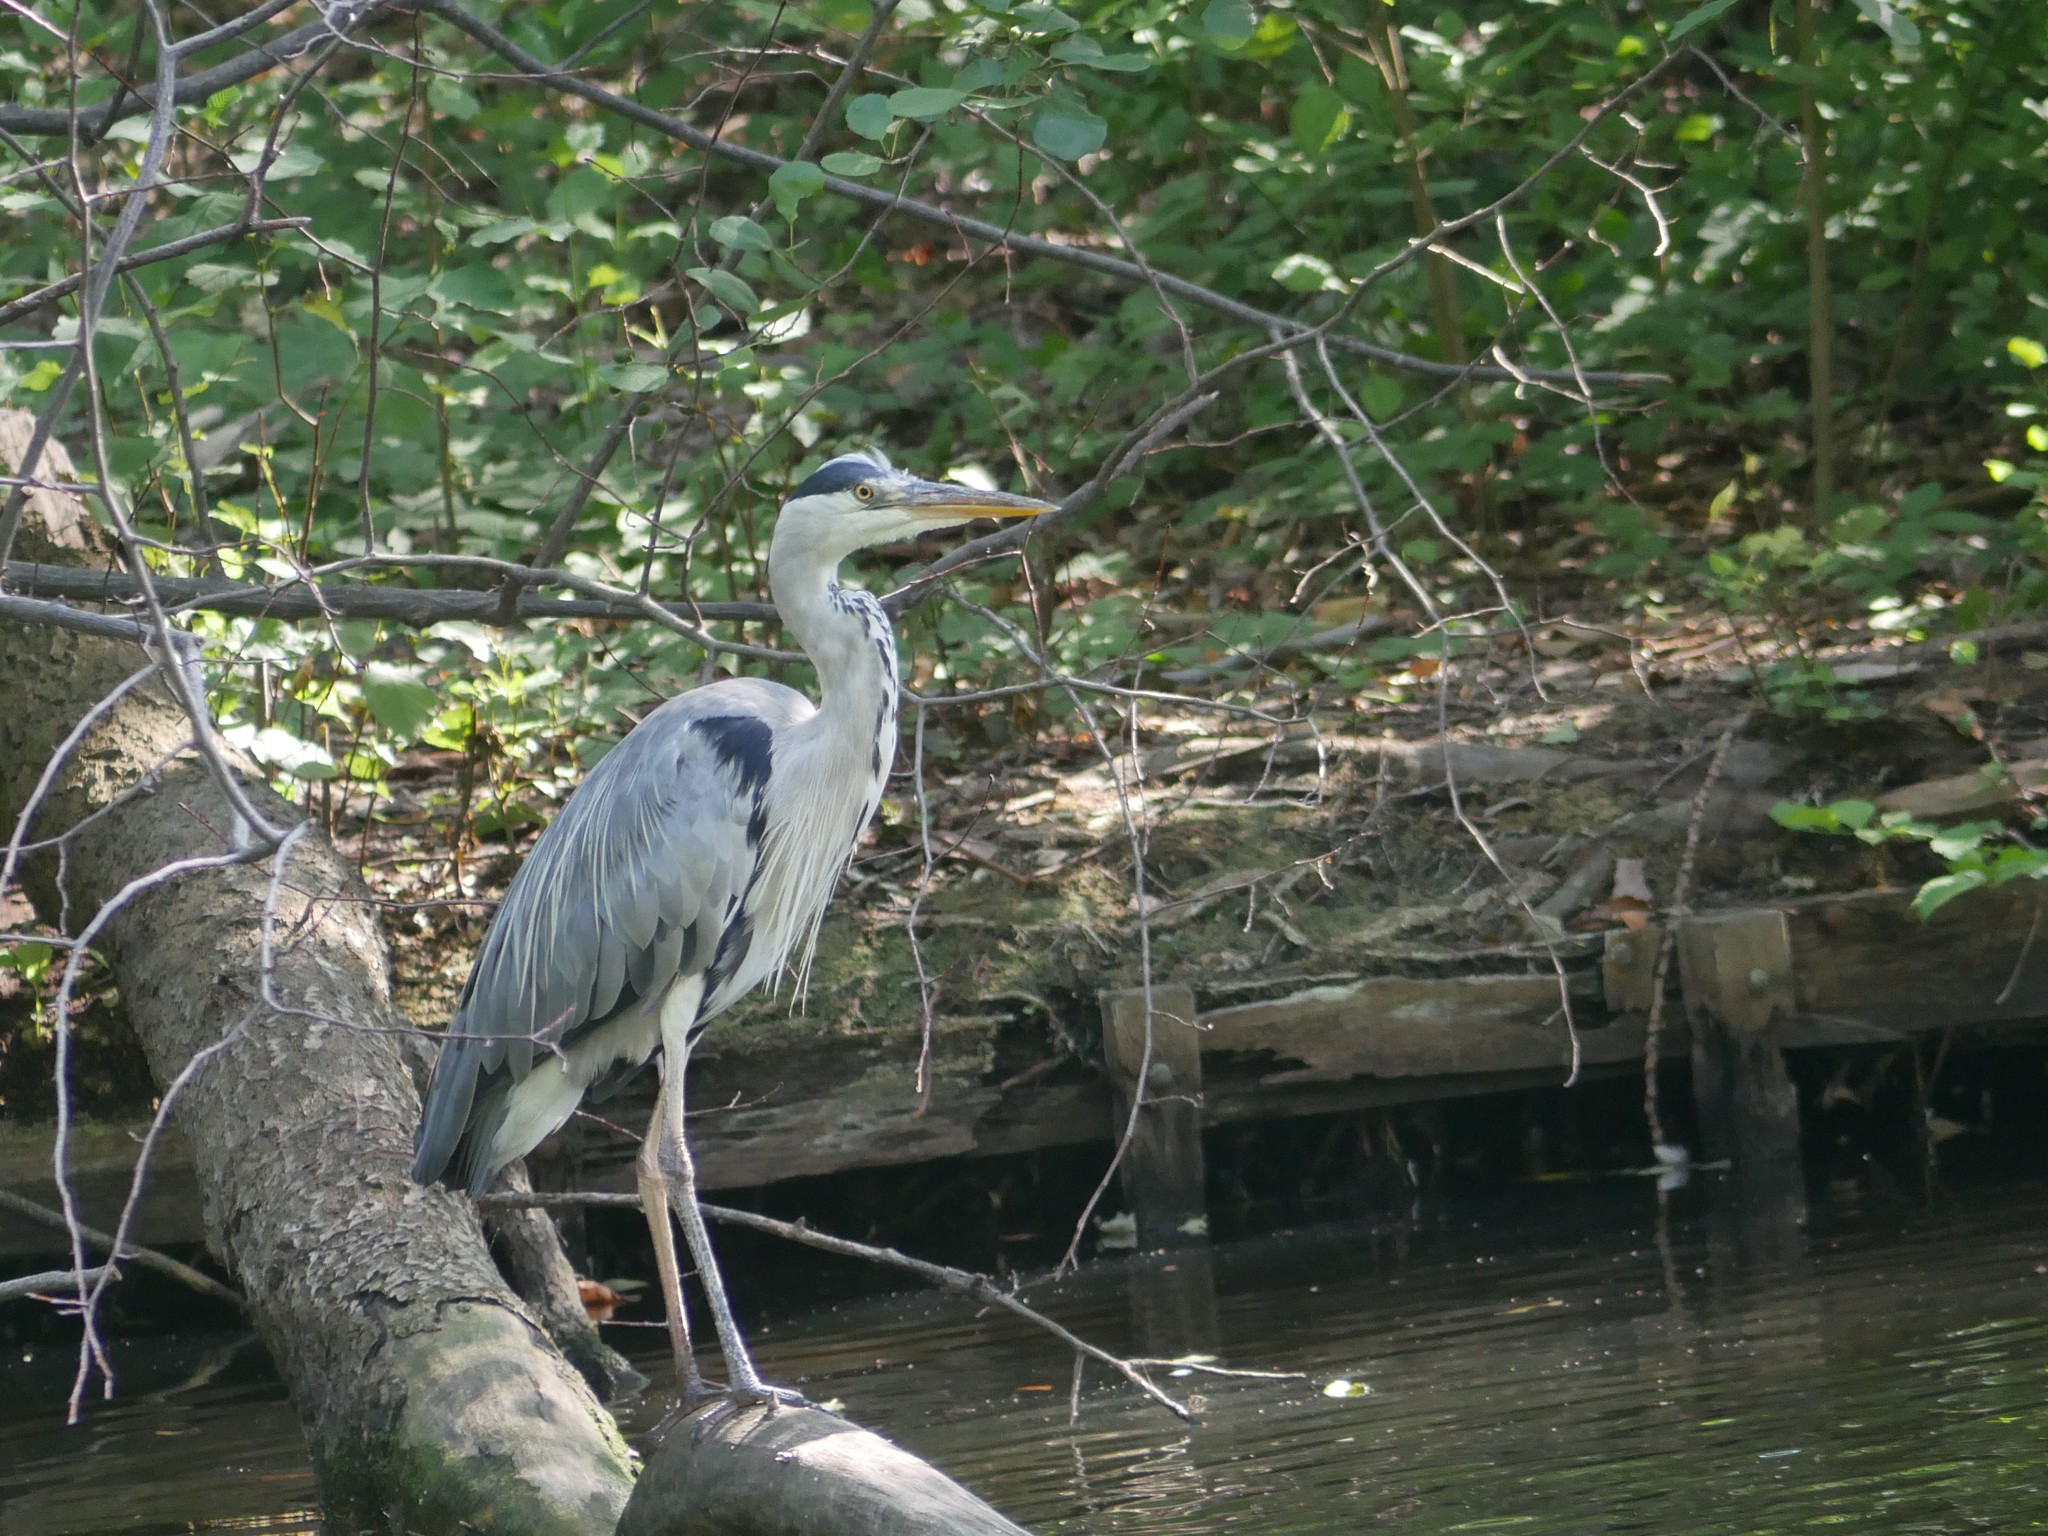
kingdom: Animalia
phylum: Chordata
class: Aves
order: Pelecaniformes
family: Ardeidae
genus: Ardea
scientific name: Ardea cinerea
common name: Grey heron
